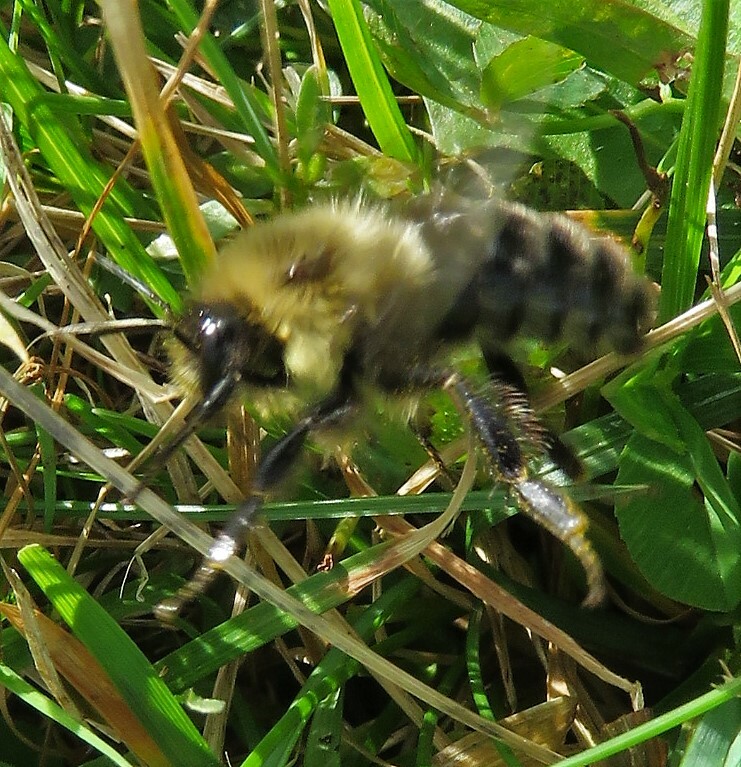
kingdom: Animalia
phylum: Arthropoda
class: Insecta
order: Hymenoptera
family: Apidae
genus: Bombus
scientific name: Bombus impatiens
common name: Common eastern bumble bee
